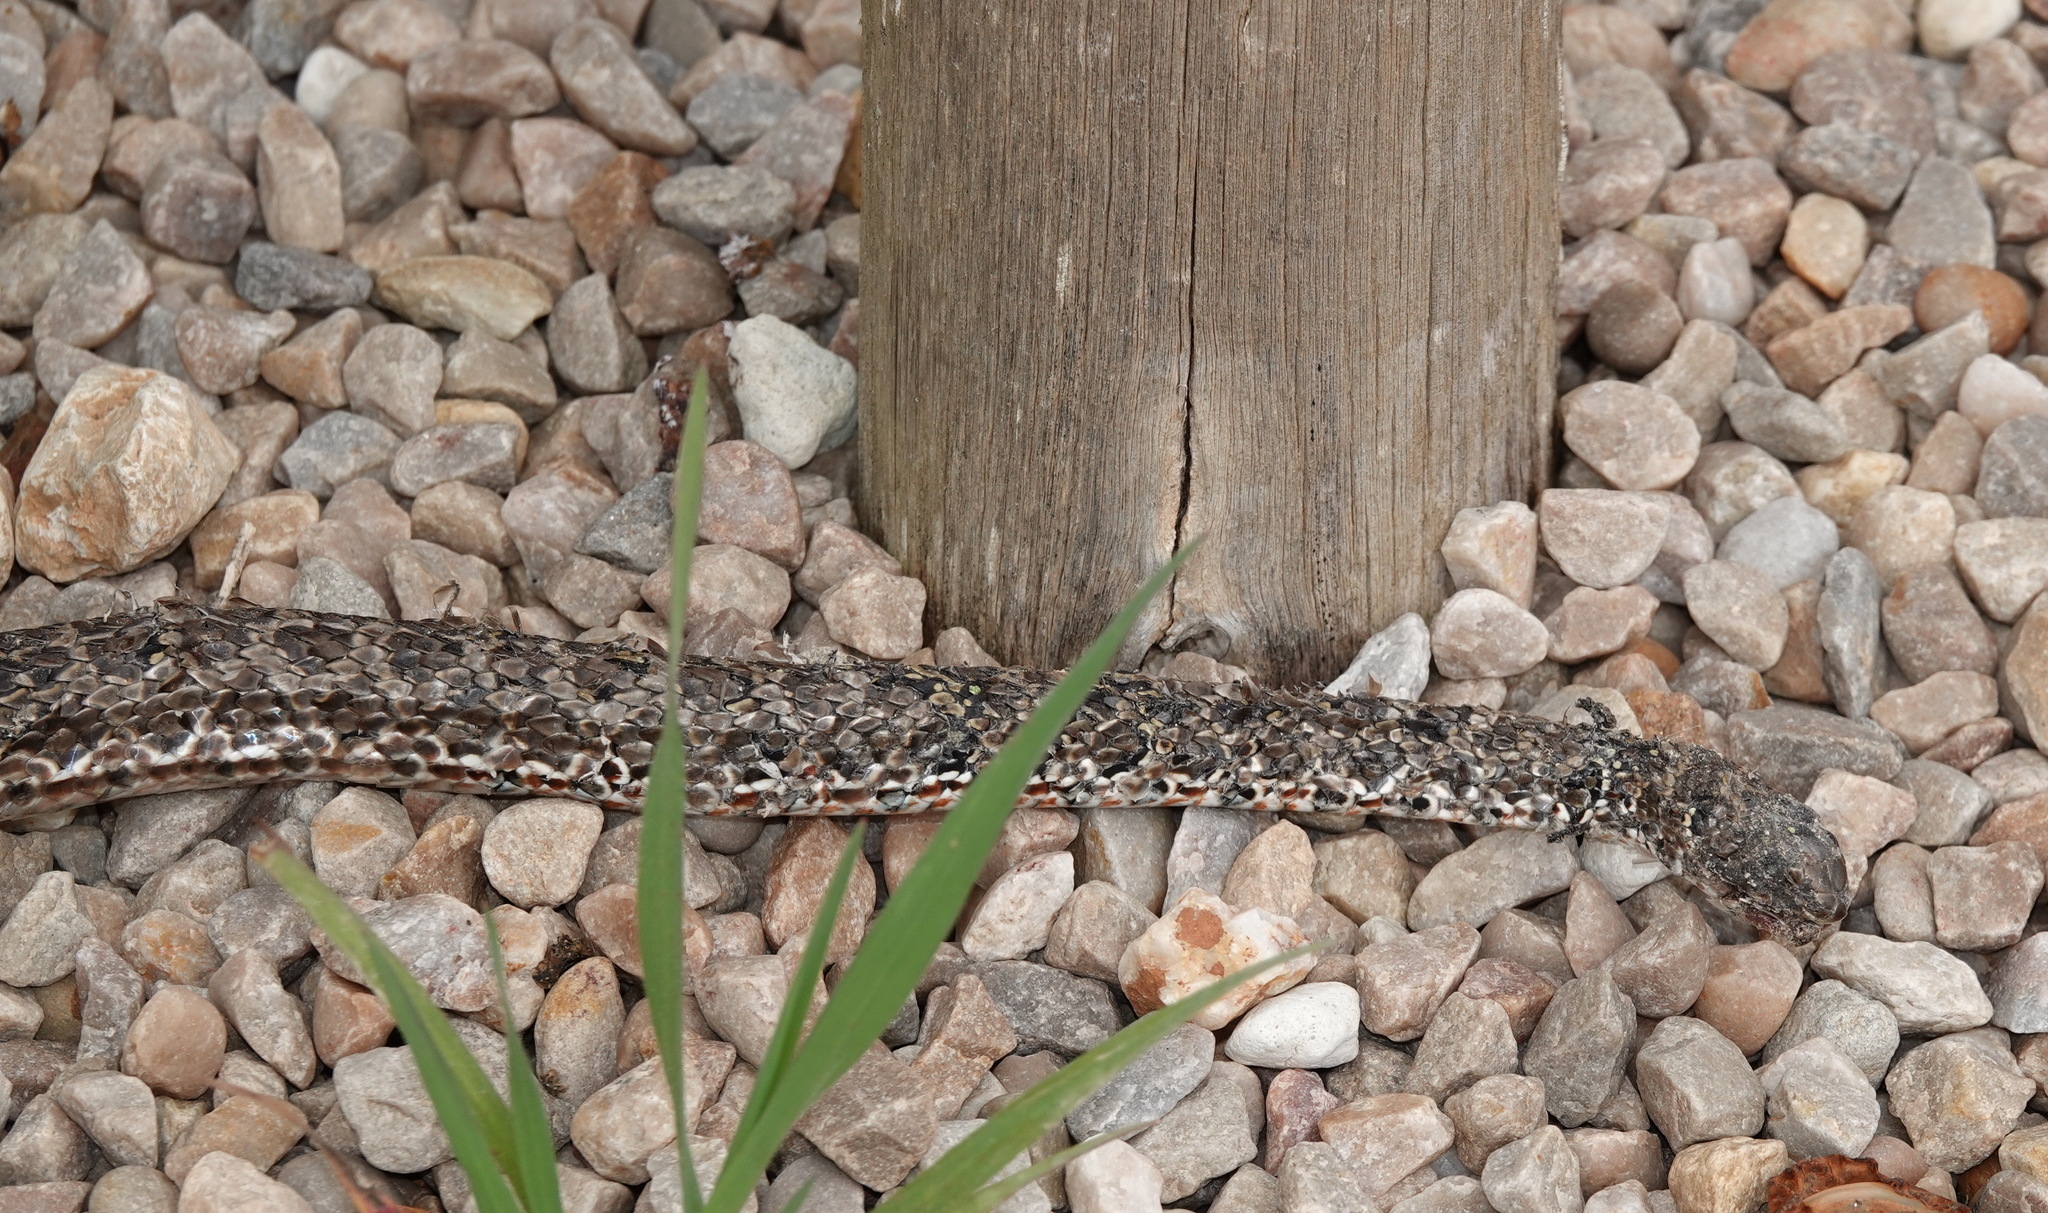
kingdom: Animalia
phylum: Chordata
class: Squamata
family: Psammophiidae
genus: Psammophylax
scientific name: Psammophylax rhombeatus
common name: Rhombic skaapsteker
